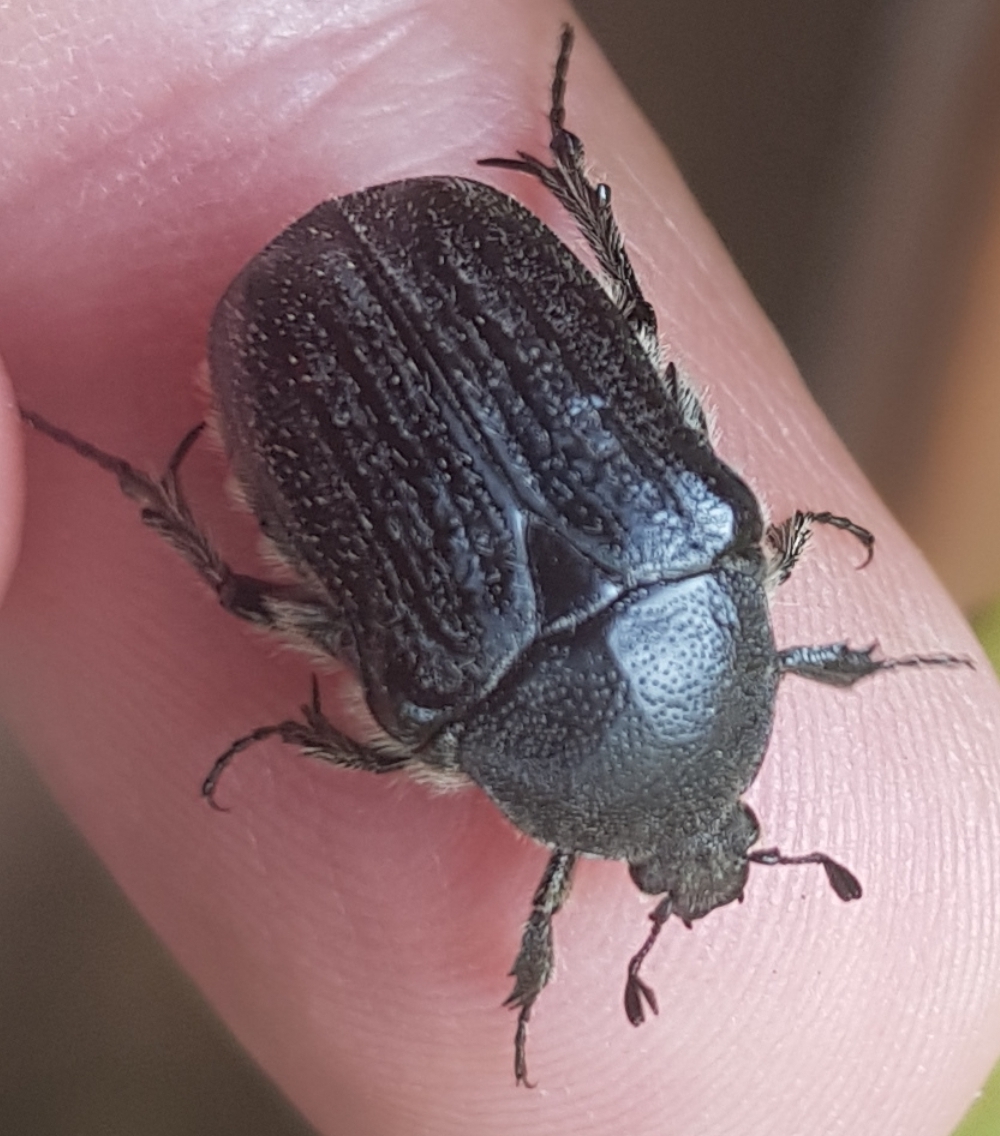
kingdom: Animalia
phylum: Arthropoda
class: Insecta
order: Coleoptera
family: Scarabaeidae
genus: Euphoria
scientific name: Euphoria humilis
